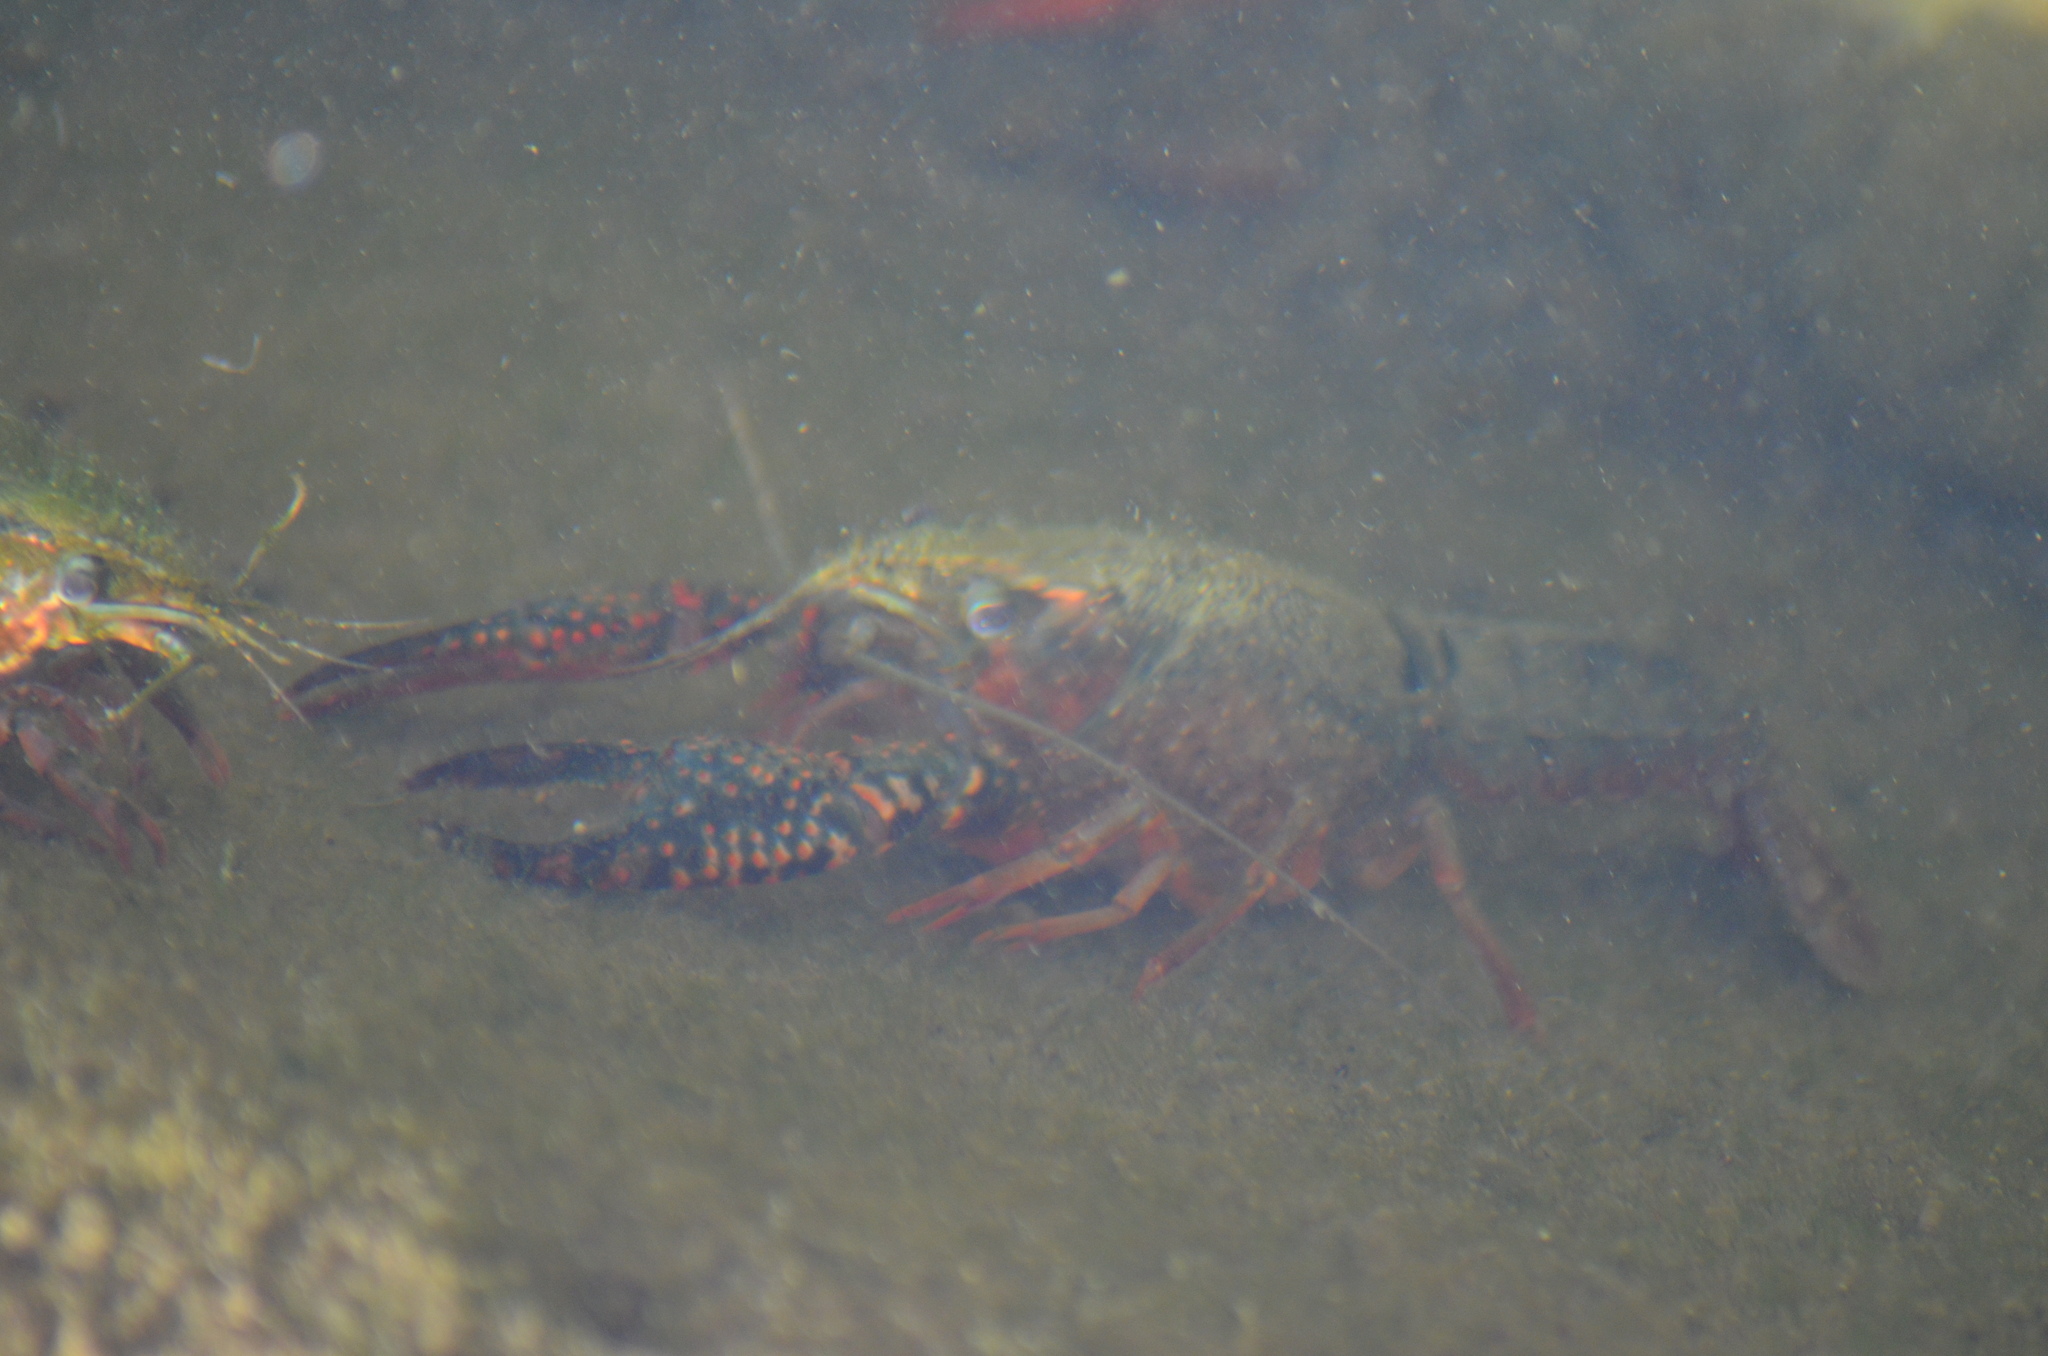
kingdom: Animalia
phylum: Arthropoda
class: Malacostraca
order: Decapoda
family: Cambaridae
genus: Procambarus
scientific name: Procambarus clarkii
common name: Red swamp crayfish
